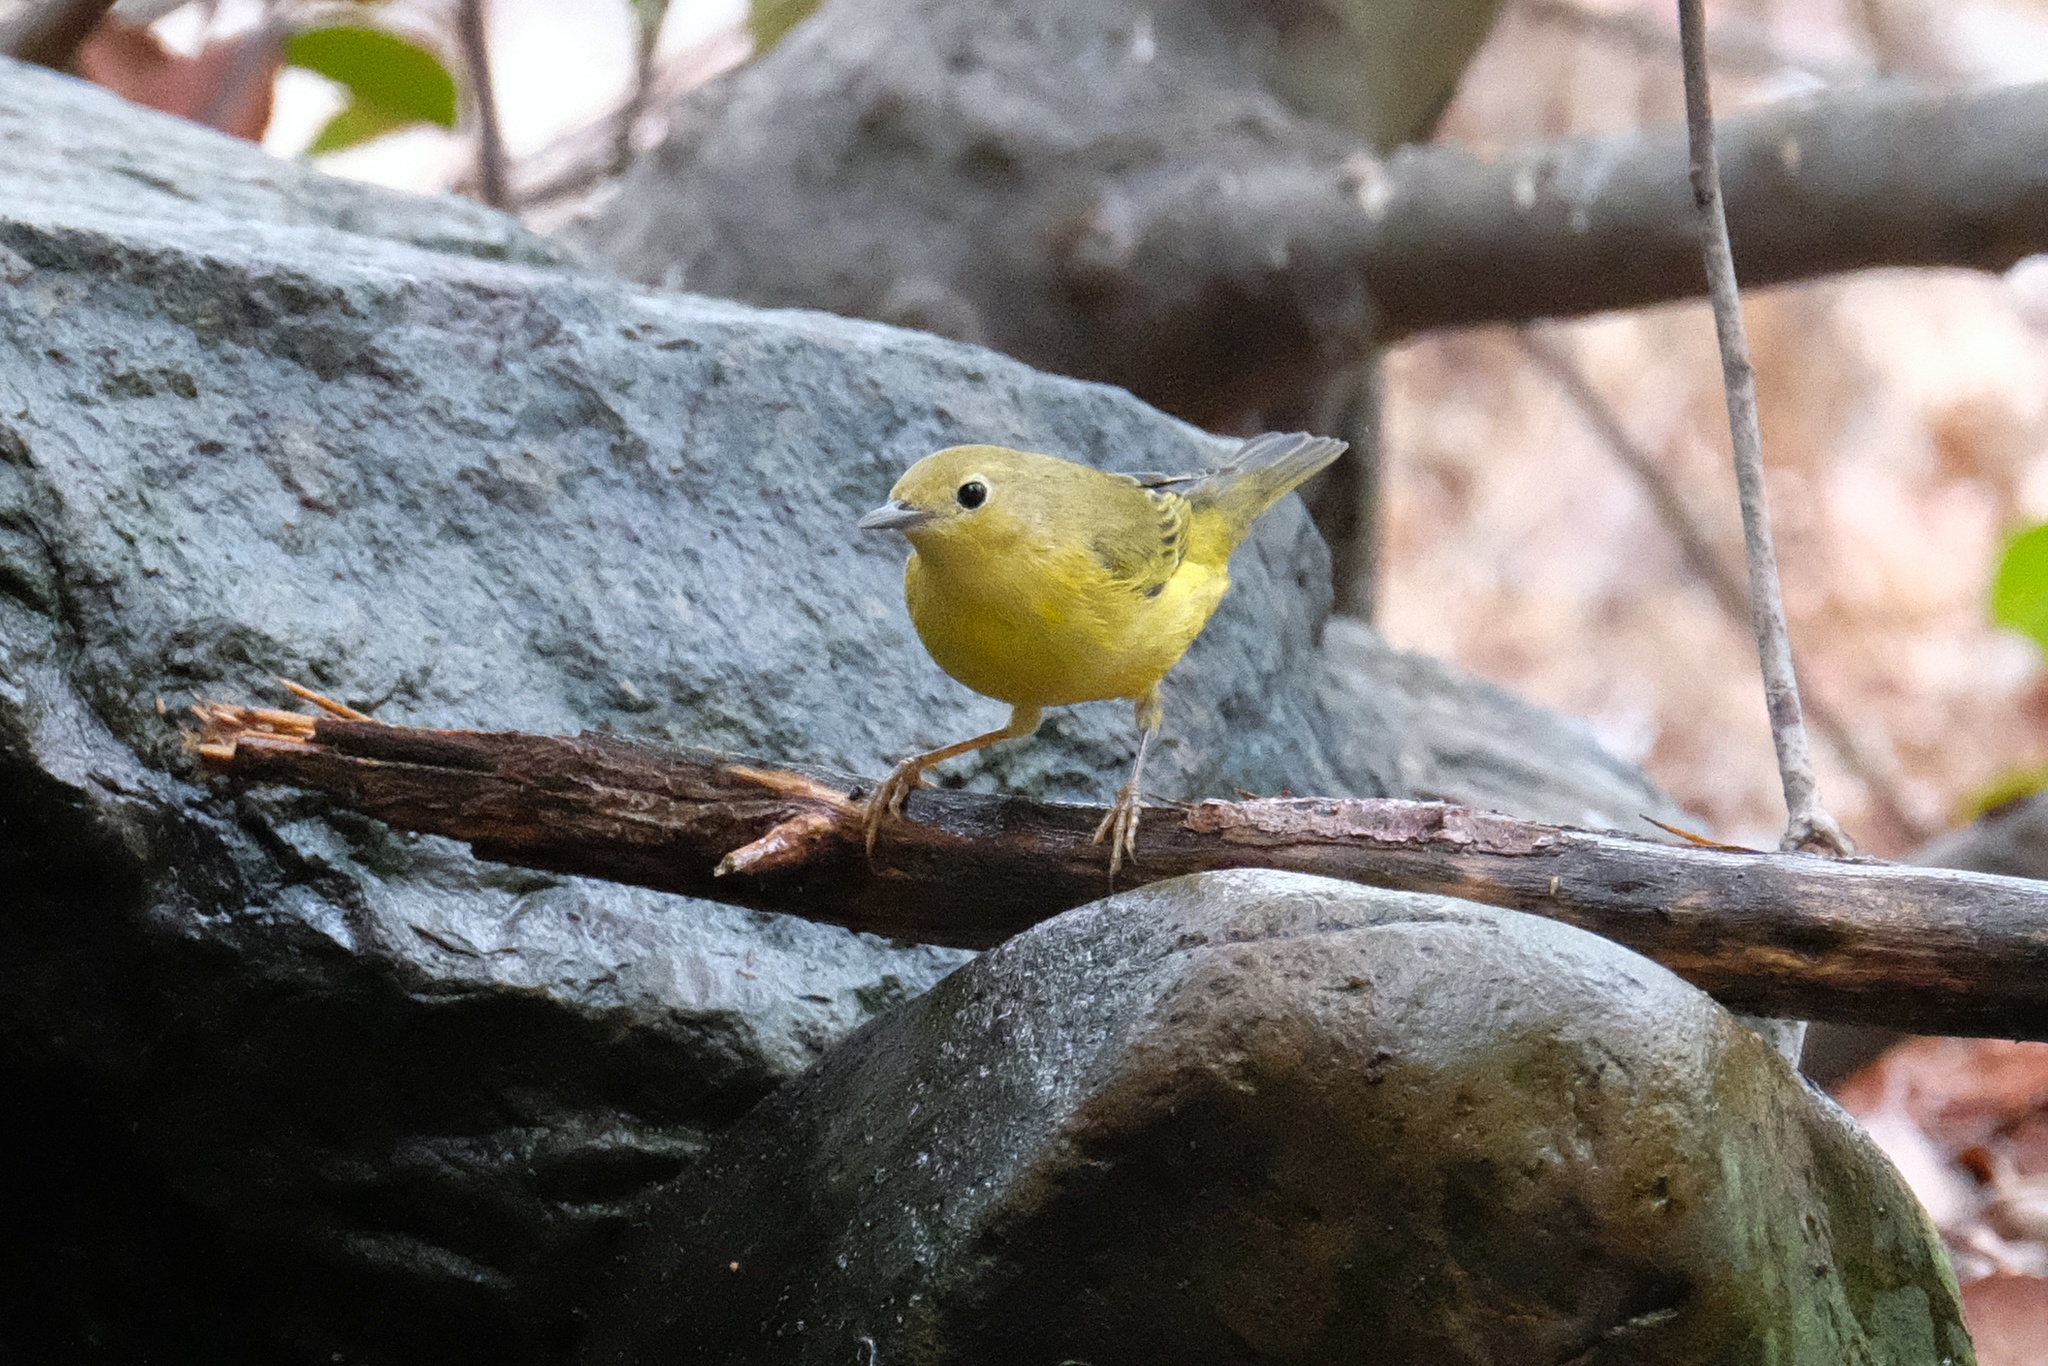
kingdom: Animalia
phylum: Chordata
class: Aves
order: Passeriformes
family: Parulidae
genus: Setophaga
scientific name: Setophaga petechia
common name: Yellow warbler
